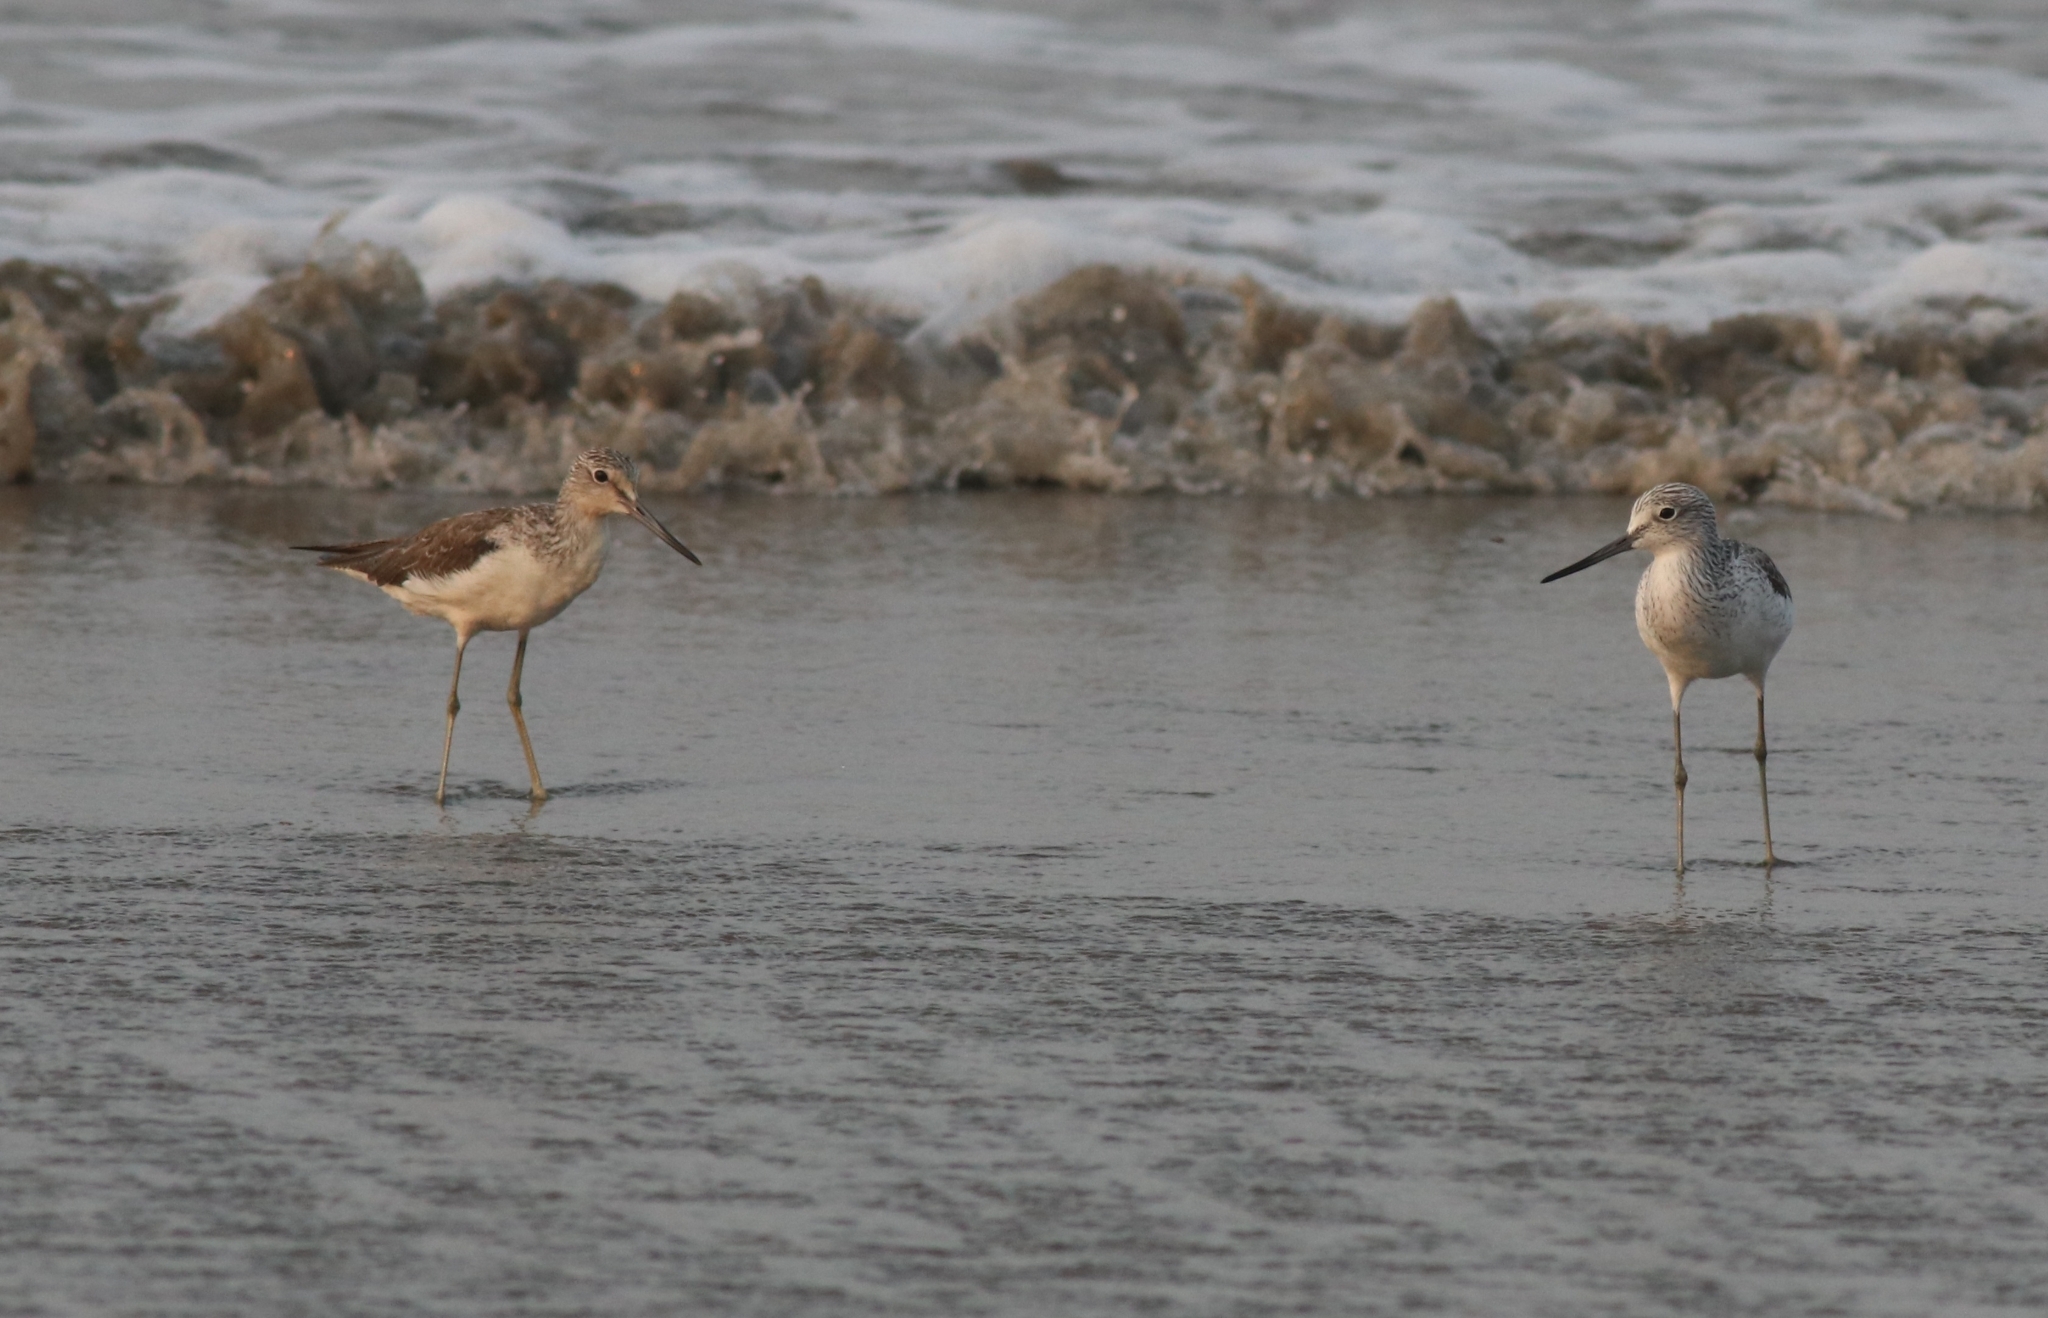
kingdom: Animalia
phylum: Chordata
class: Aves
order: Charadriiformes
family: Scolopacidae
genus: Tringa
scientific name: Tringa nebularia
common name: Common greenshank
